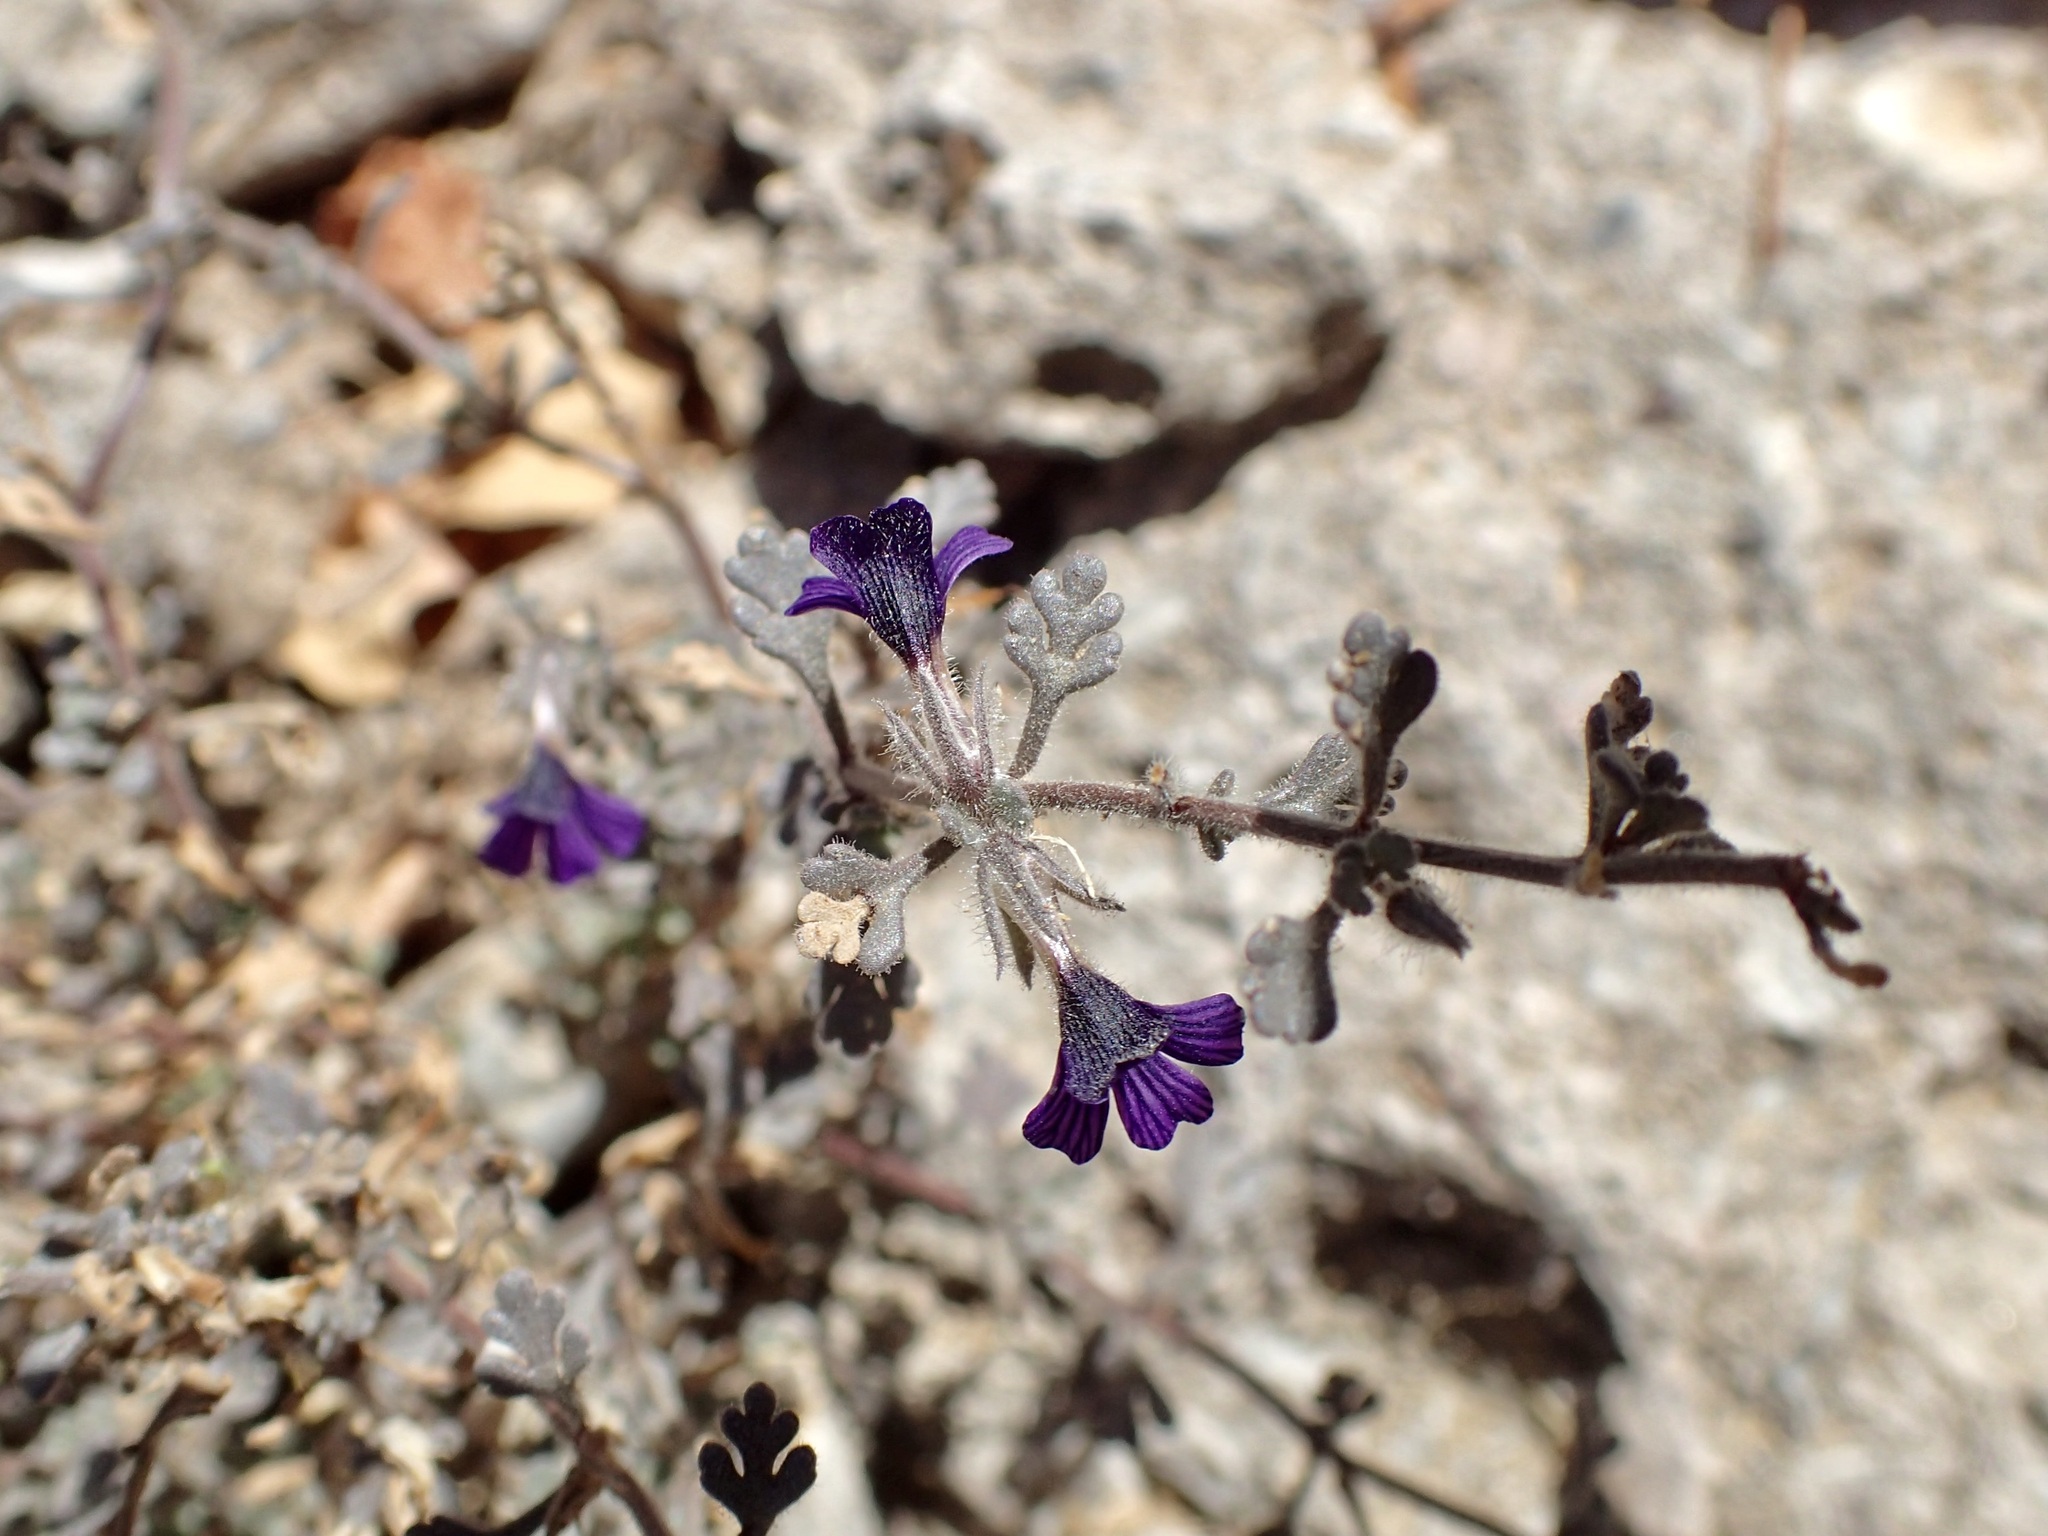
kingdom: Plantae
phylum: Tracheophyta
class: Magnoliopsida
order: Lamiales
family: Plantaginaceae
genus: Schistophragma
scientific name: Schistophragma polystachyum
